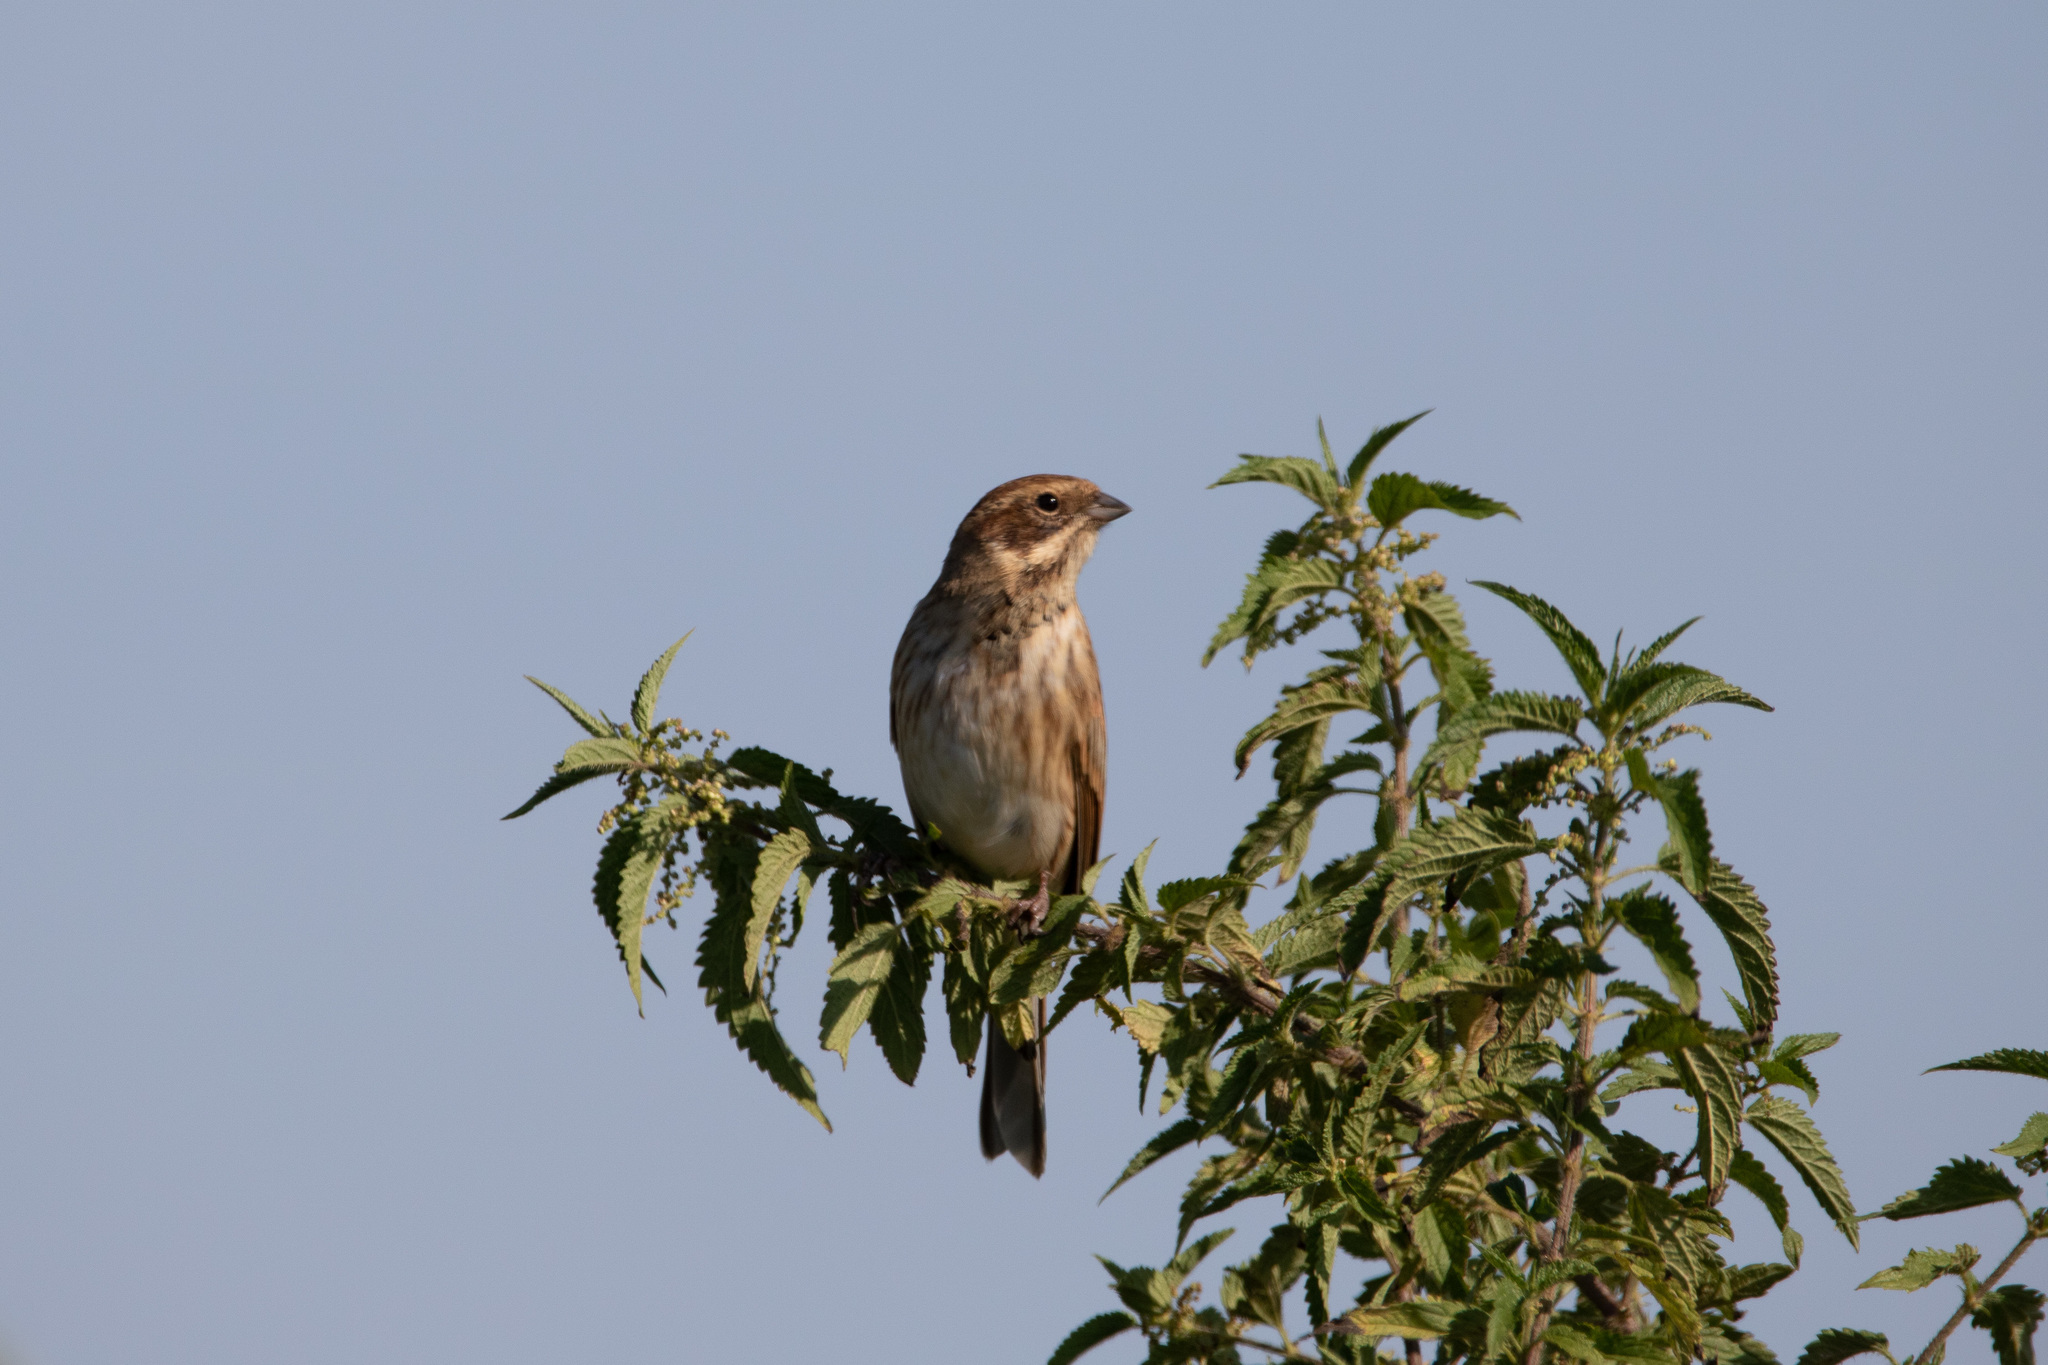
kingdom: Animalia
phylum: Chordata
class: Aves
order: Passeriformes
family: Emberizidae
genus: Emberiza
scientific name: Emberiza schoeniclus
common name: Reed bunting
